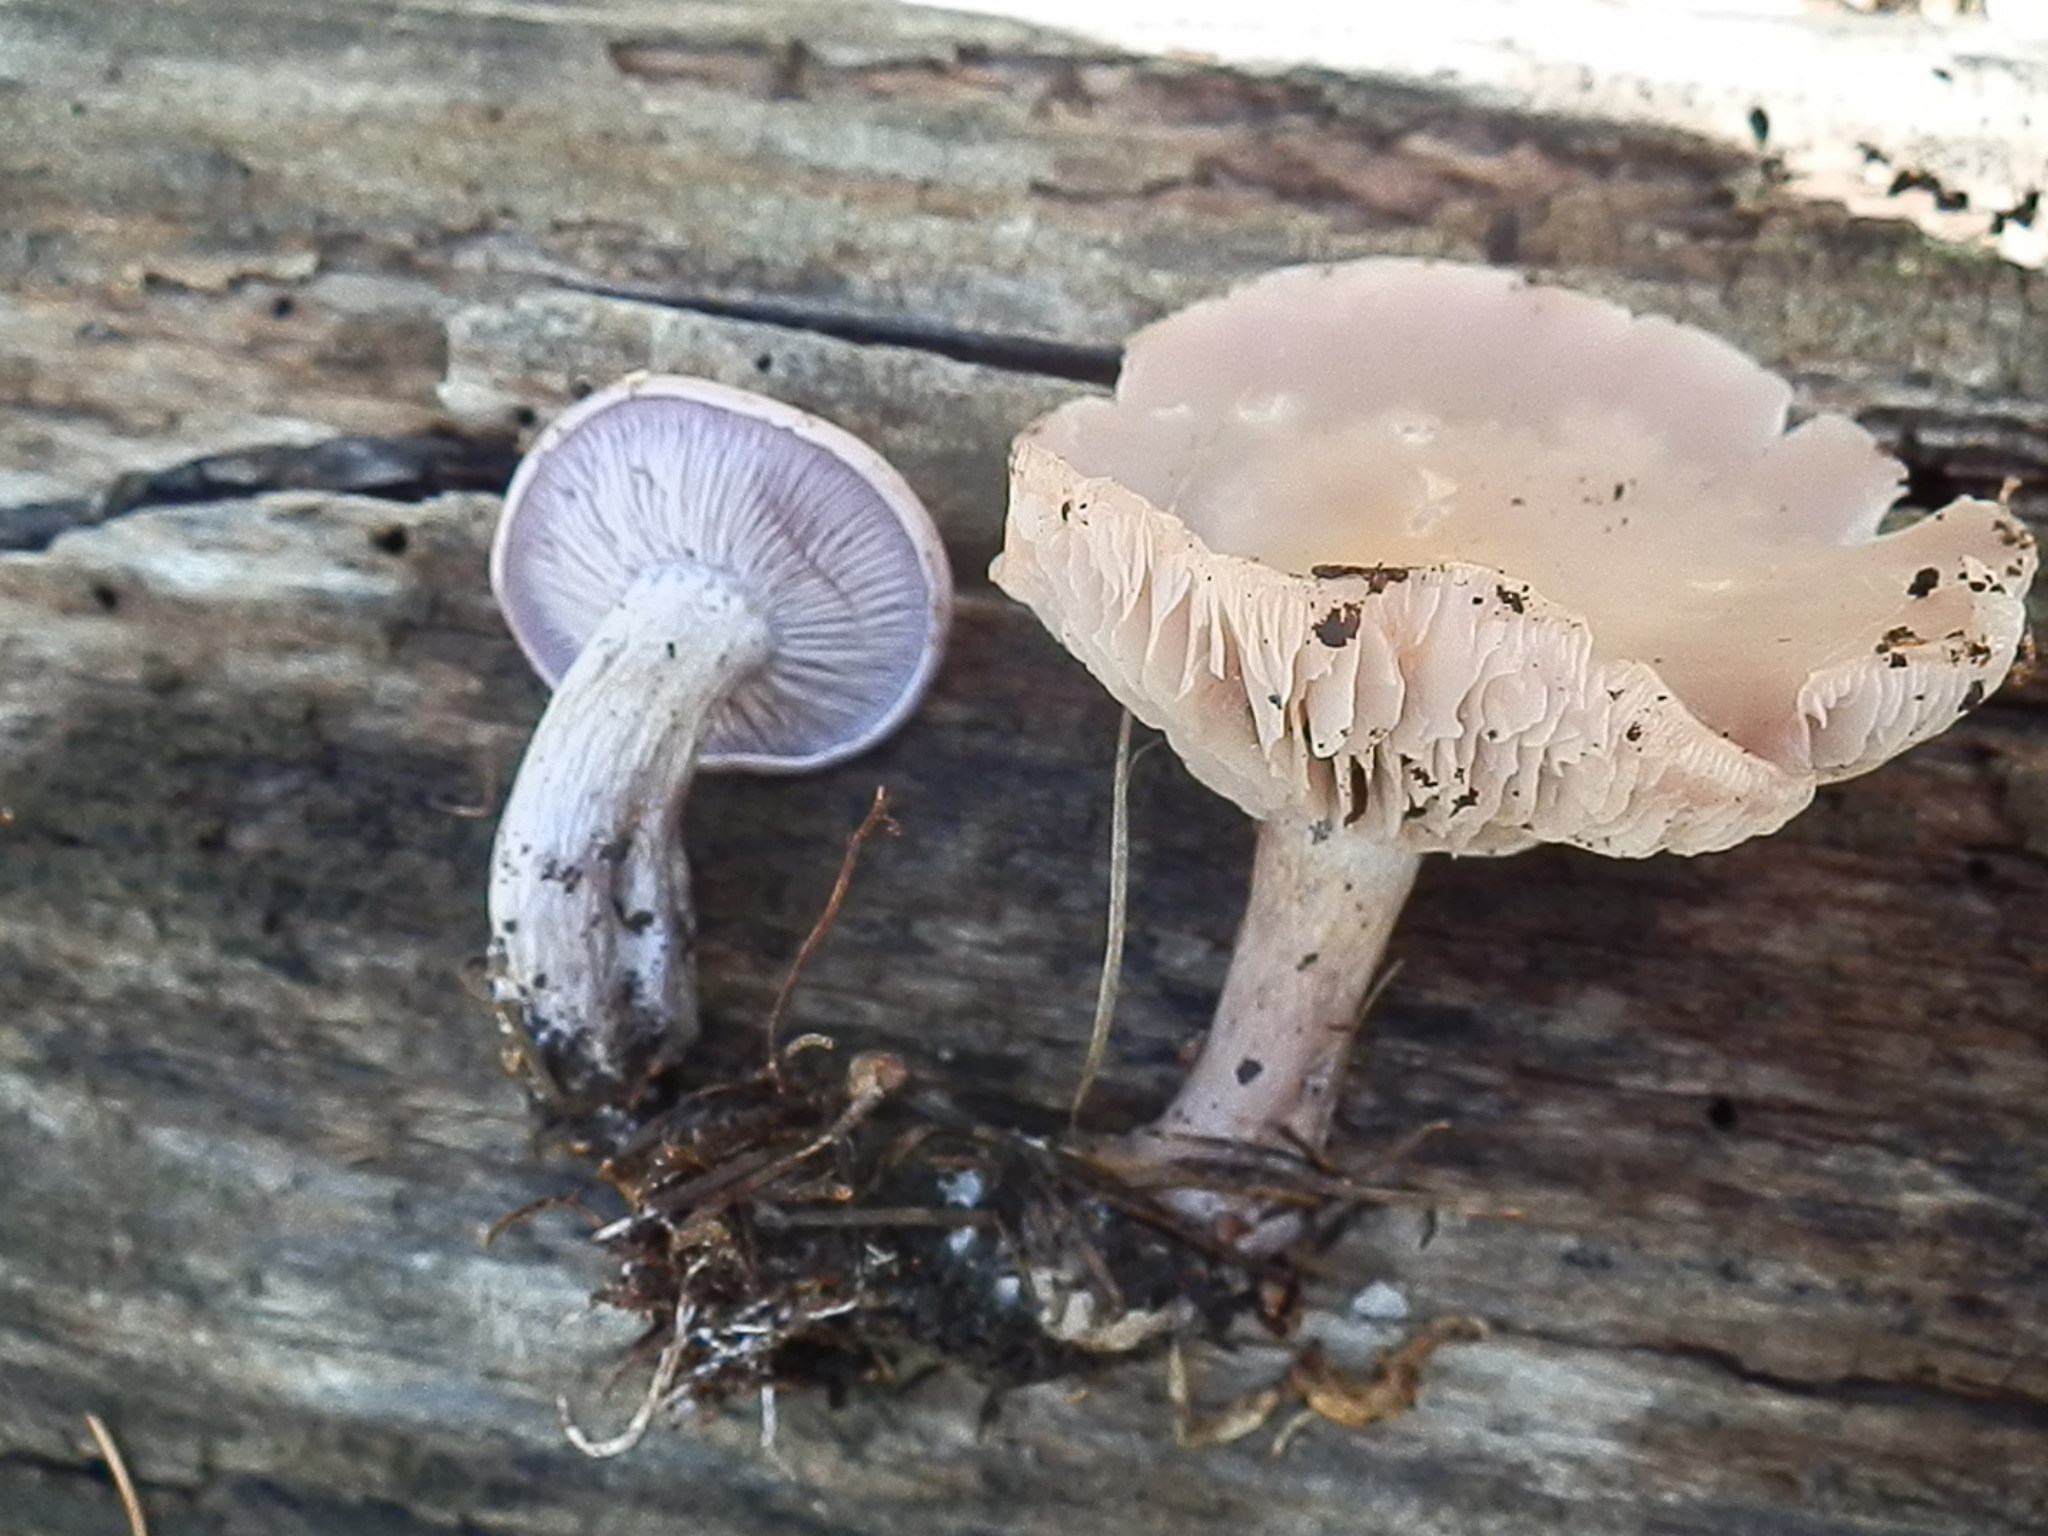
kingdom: Fungi
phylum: Basidiomycota
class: Agaricomycetes
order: Agaricales
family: Tricholomataceae
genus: Clitocybe
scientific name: Clitocybe violaceifolia
